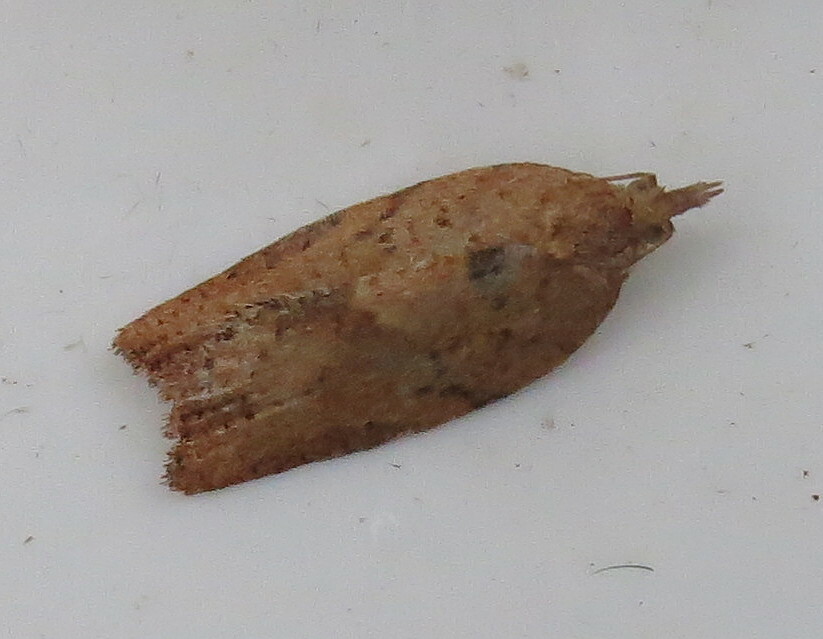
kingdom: Animalia
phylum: Arthropoda
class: Insecta
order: Lepidoptera
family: Tortricidae
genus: Epiphyas
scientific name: Epiphyas postvittana
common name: Light brown apple moth
